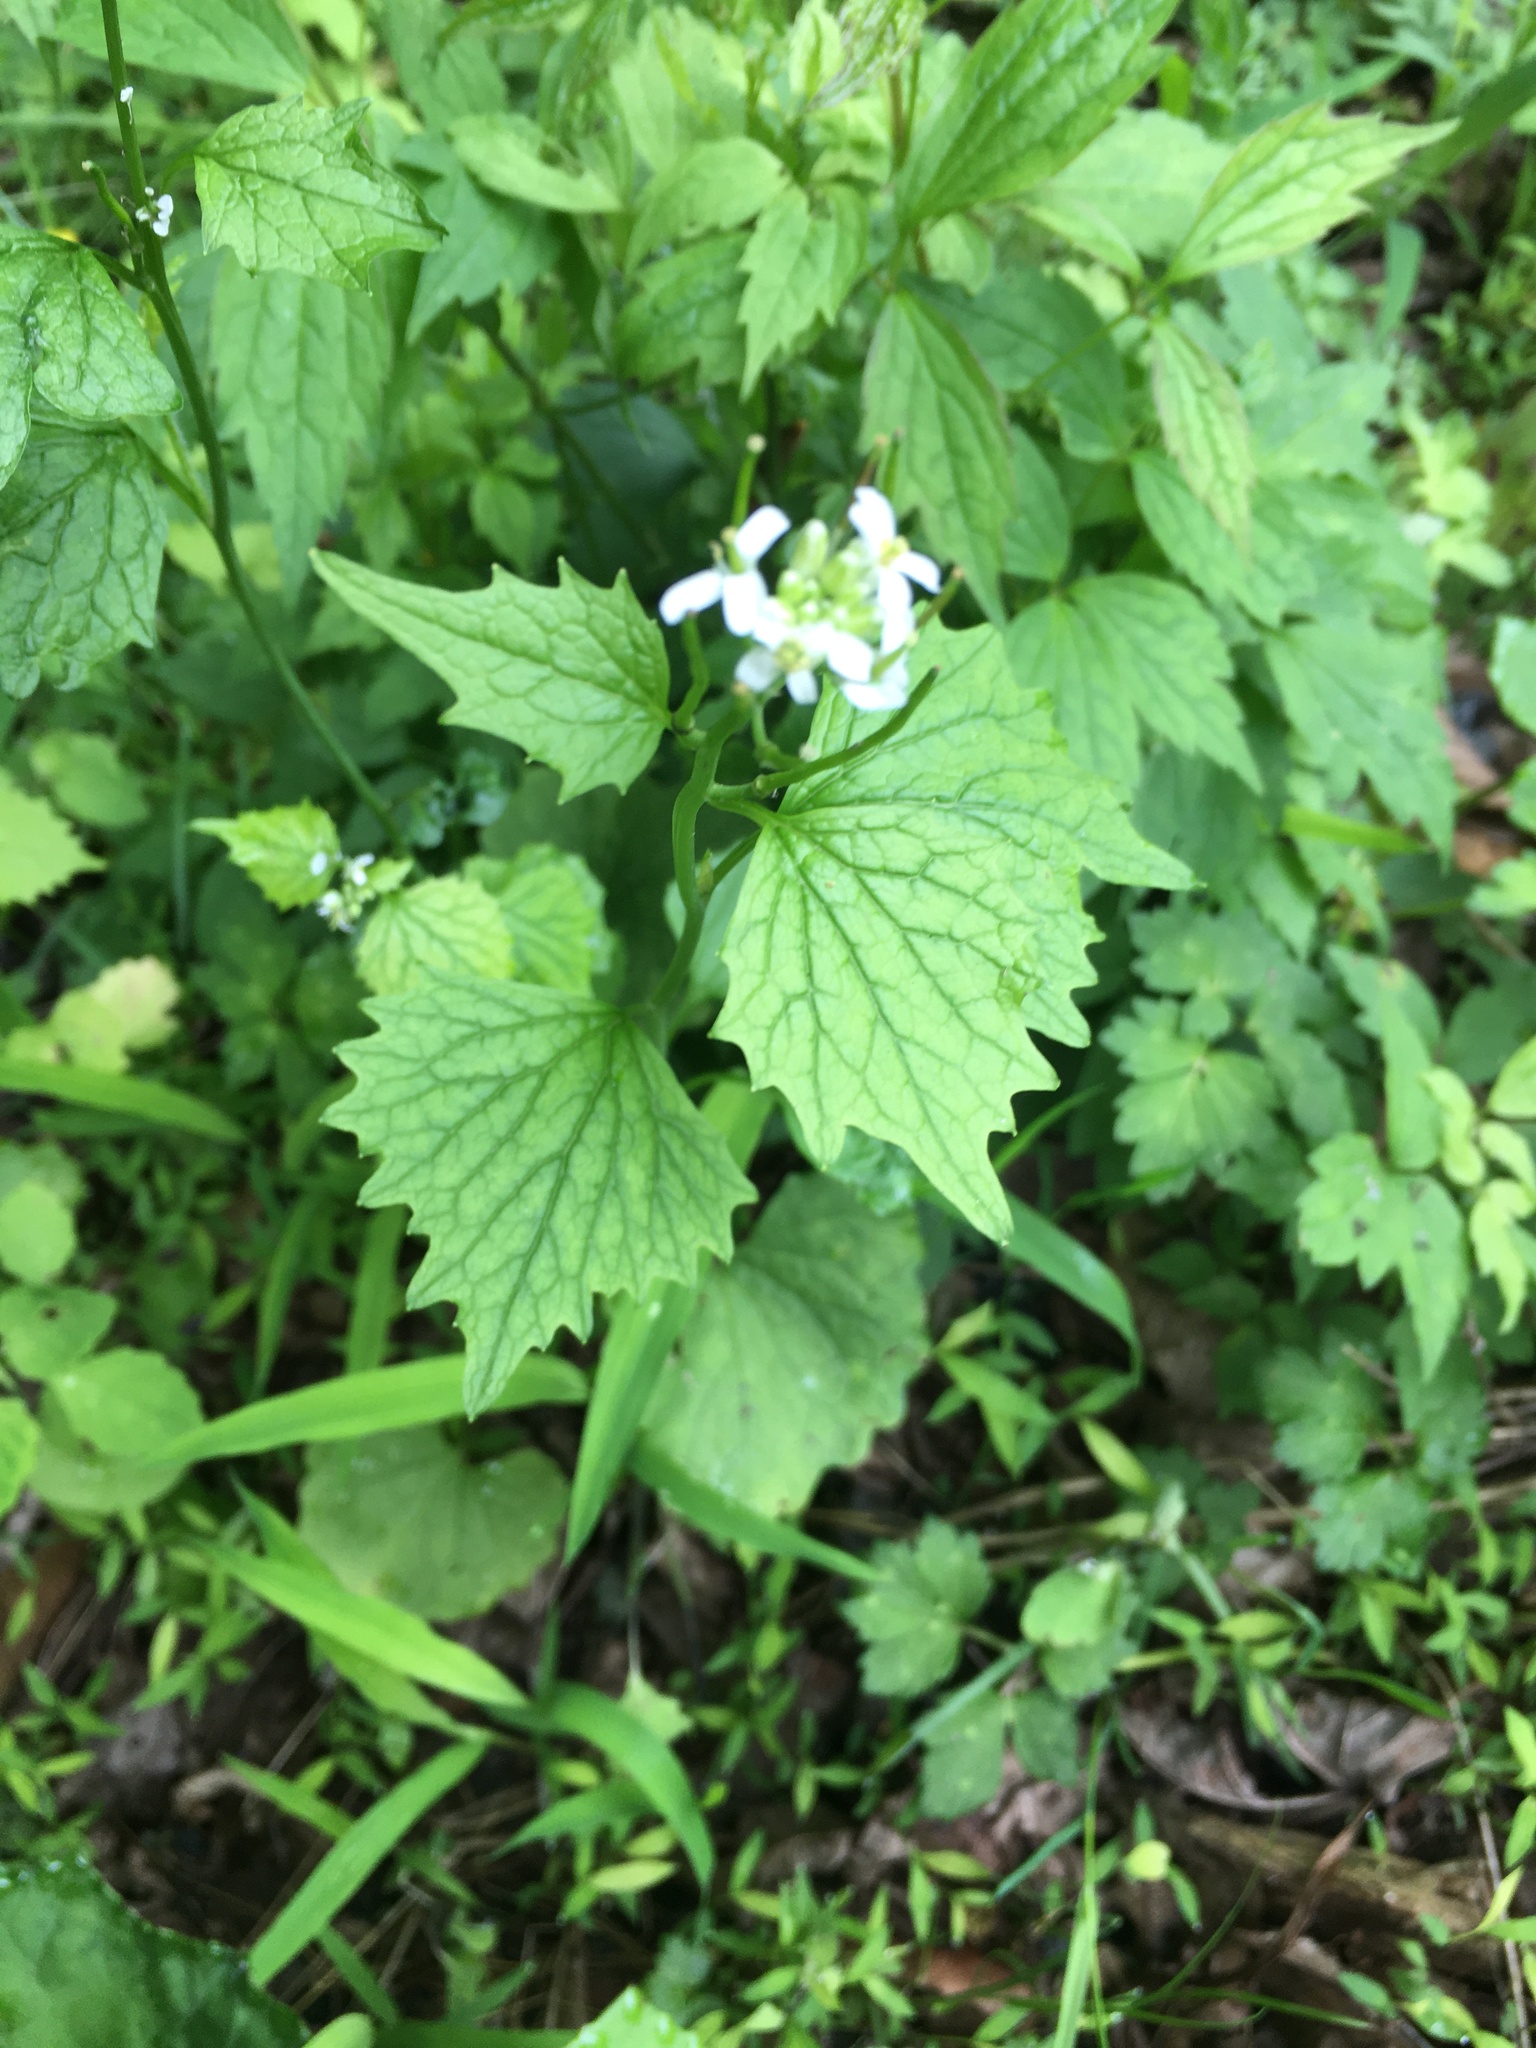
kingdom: Plantae
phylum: Tracheophyta
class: Magnoliopsida
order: Brassicales
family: Brassicaceae
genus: Alliaria
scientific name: Alliaria petiolata
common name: Garlic mustard
